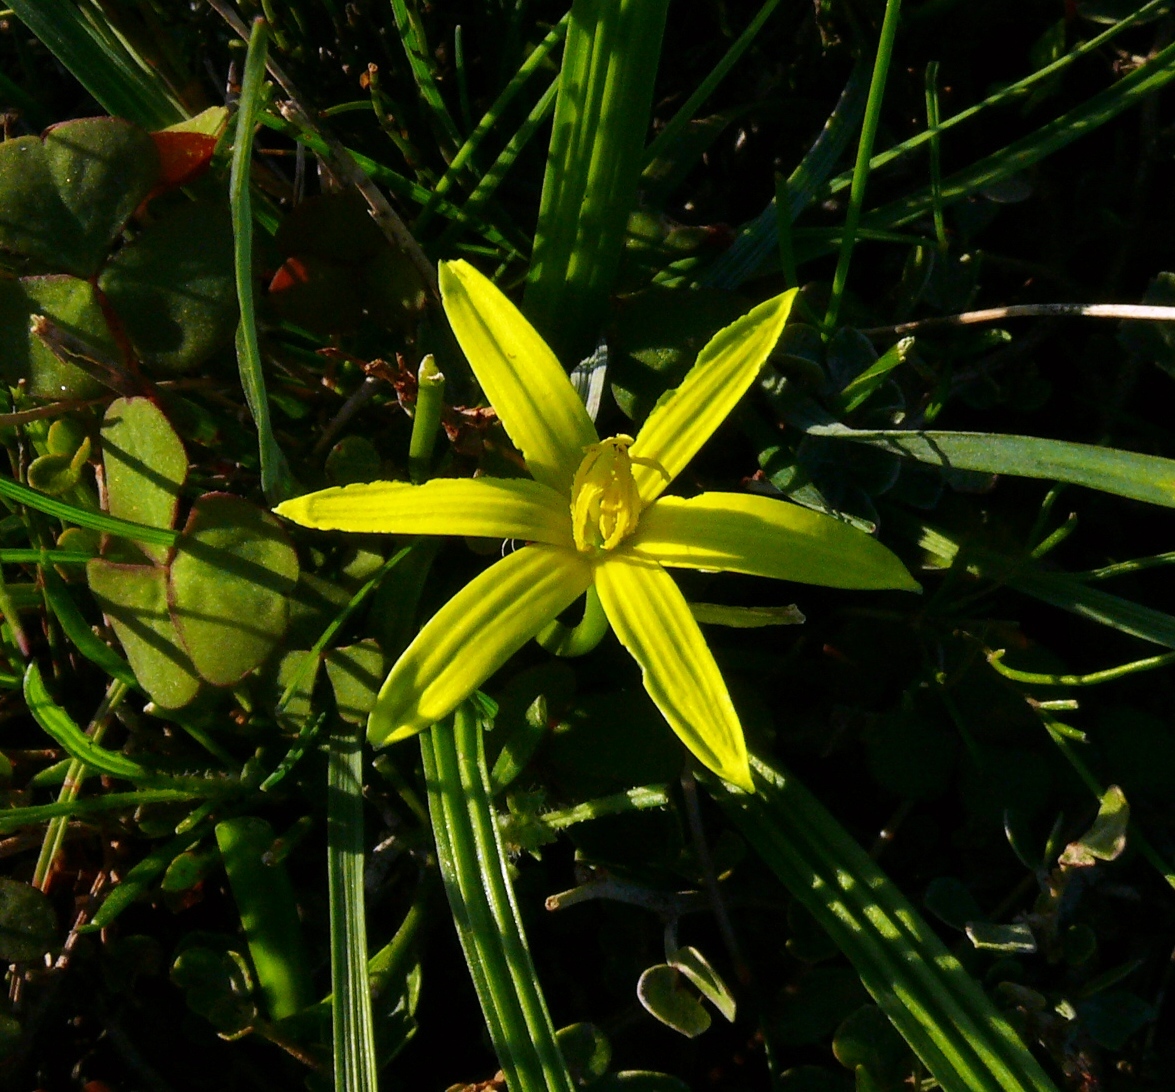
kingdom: Plantae
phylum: Tracheophyta
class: Liliopsida
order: Asparagales
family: Hypoxidaceae
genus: Empodium
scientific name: Empodium gloriosum
